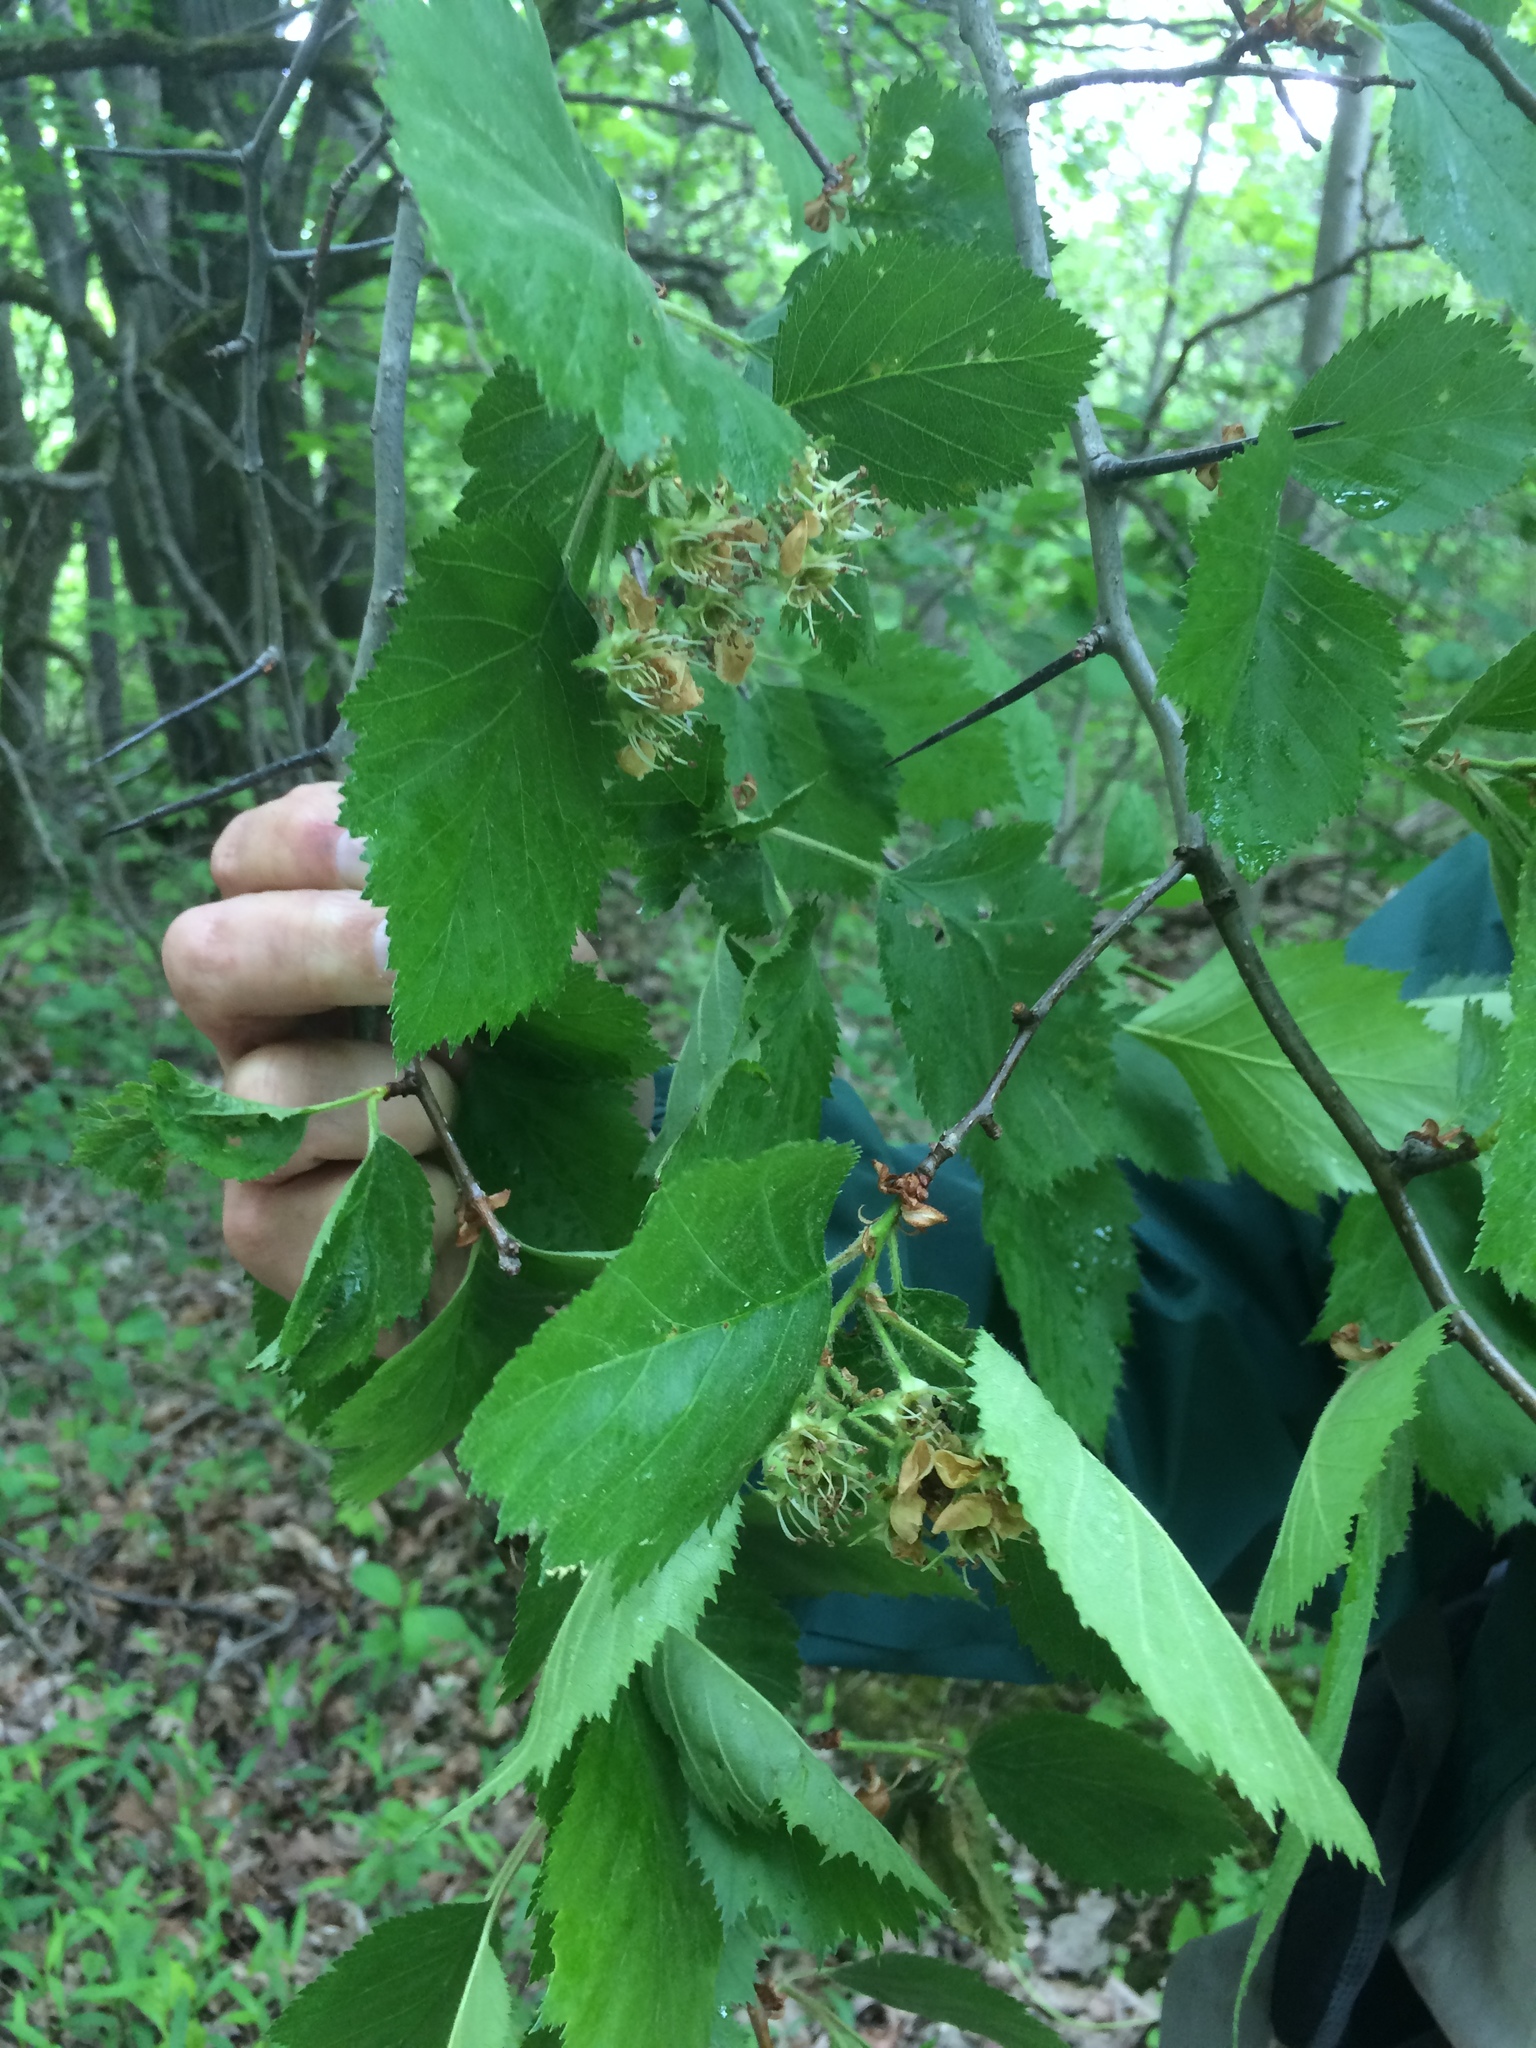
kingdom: Plantae
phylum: Tracheophyta
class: Magnoliopsida
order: Rosales
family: Rosaceae
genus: Crataegus
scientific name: Crataegus submollis
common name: Hairy cockspurthorn
